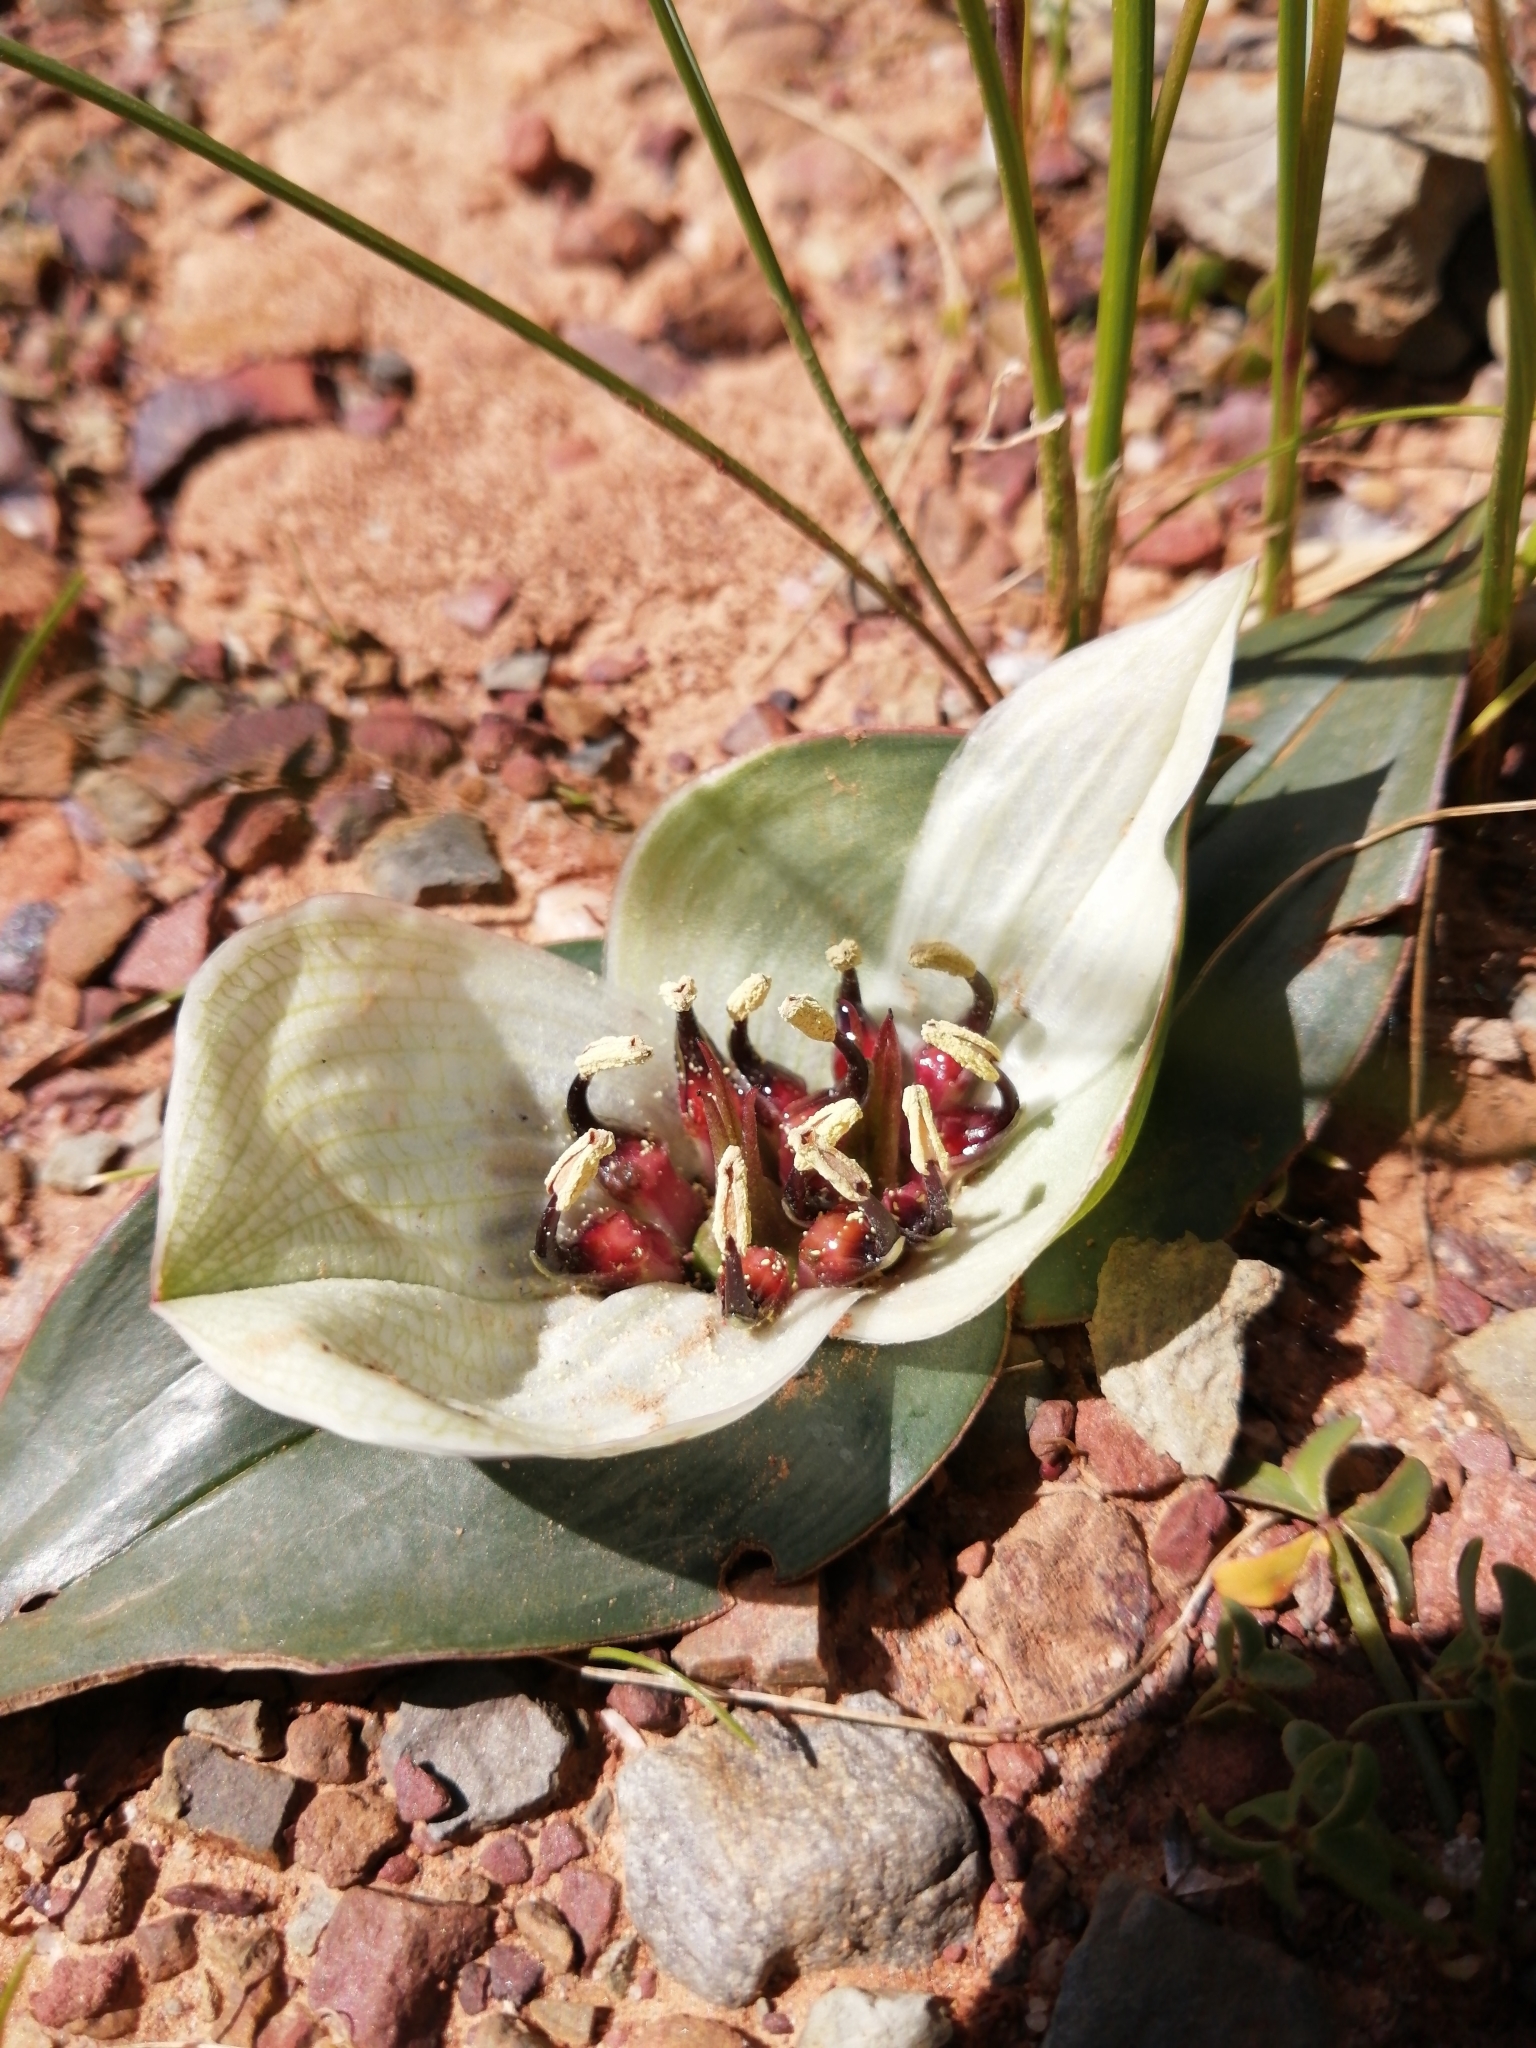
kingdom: Plantae
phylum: Tracheophyta
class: Liliopsida
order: Liliales
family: Colchicaceae
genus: Colchicum
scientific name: Colchicum burchellii
